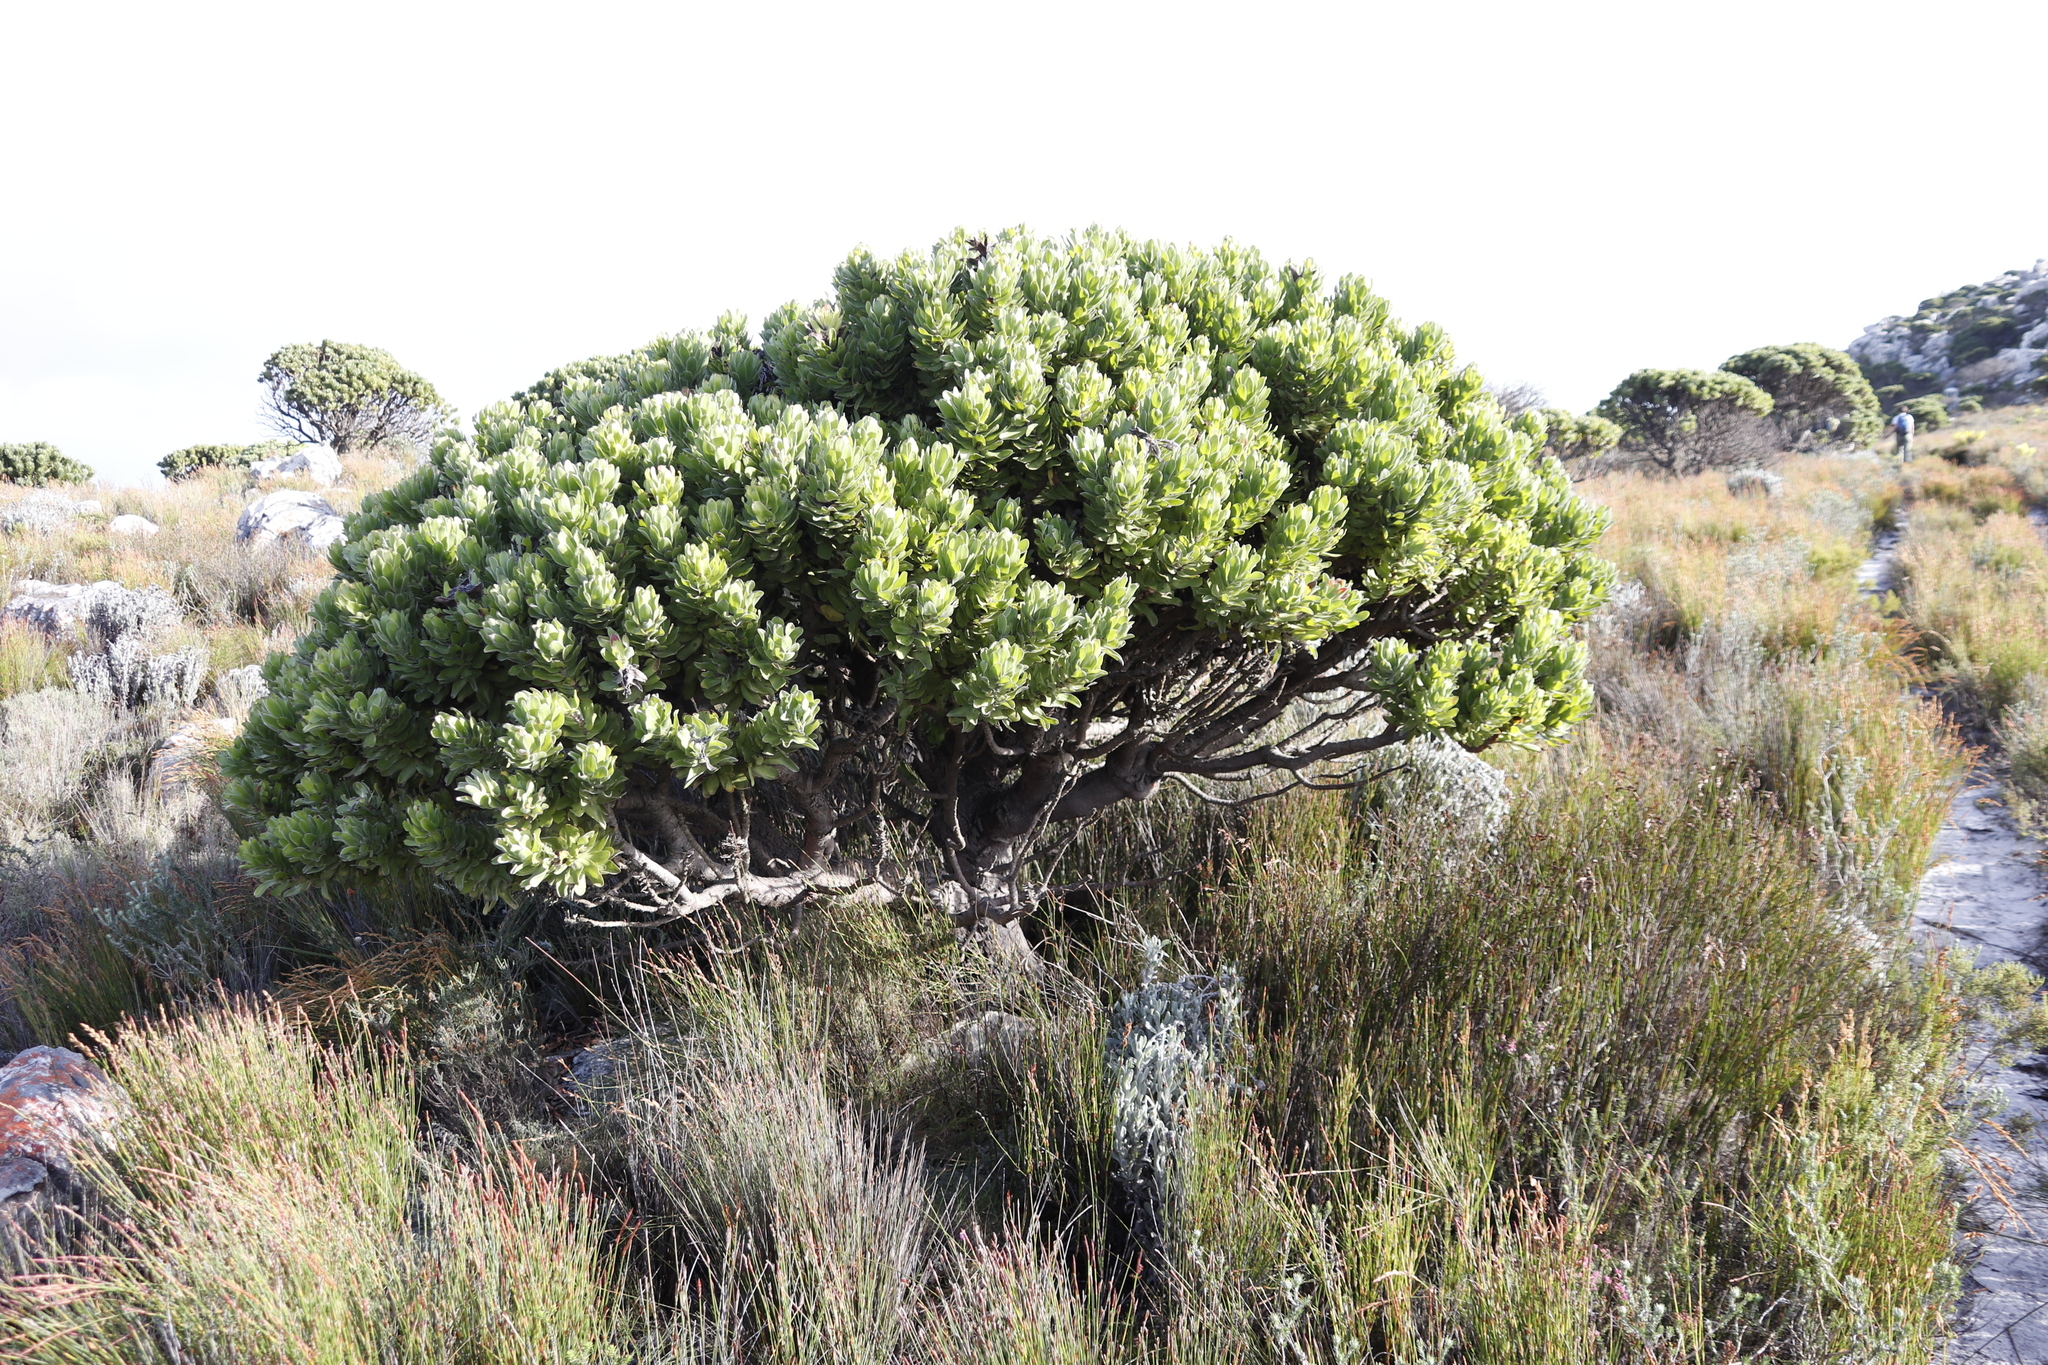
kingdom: Plantae
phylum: Tracheophyta
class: Magnoliopsida
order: Proteales
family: Proteaceae
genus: Mimetes
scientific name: Mimetes fimbriifolius
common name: Fringed bottlebrush
